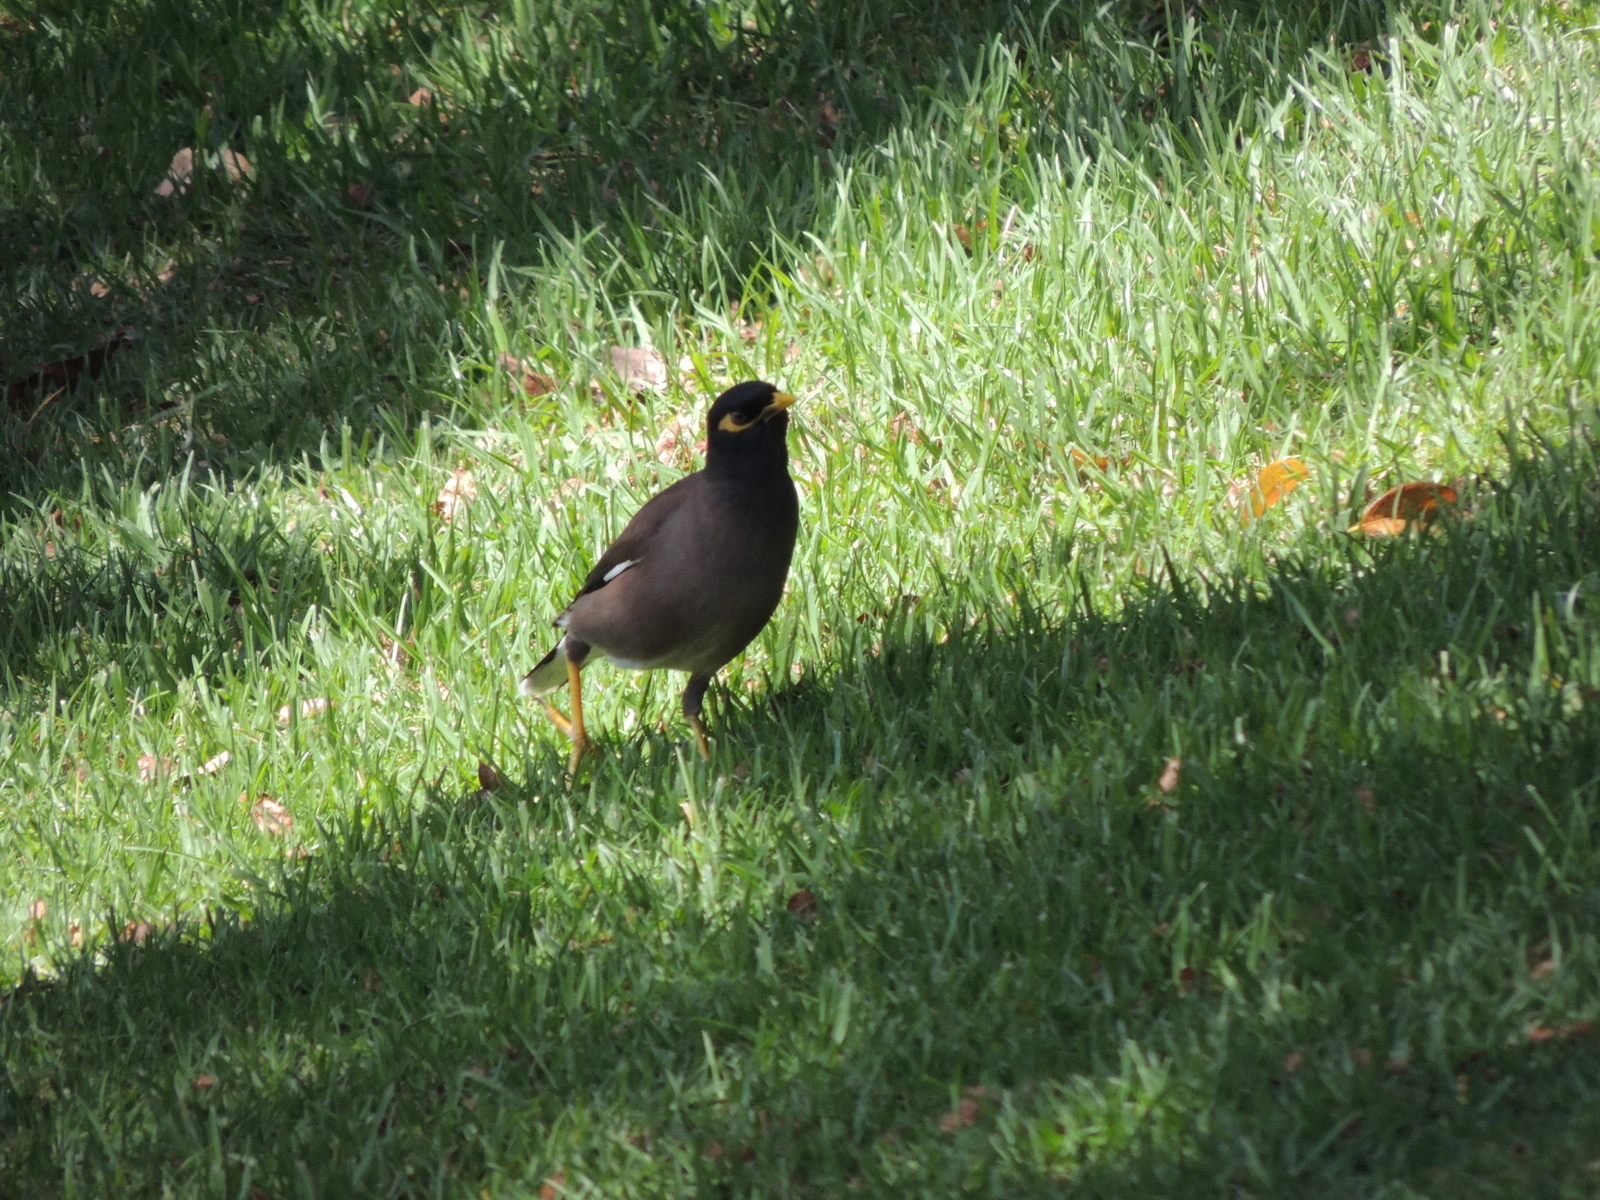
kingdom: Animalia
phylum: Chordata
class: Aves
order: Passeriformes
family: Sturnidae
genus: Acridotheres
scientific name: Acridotheres tristis
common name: Common myna
